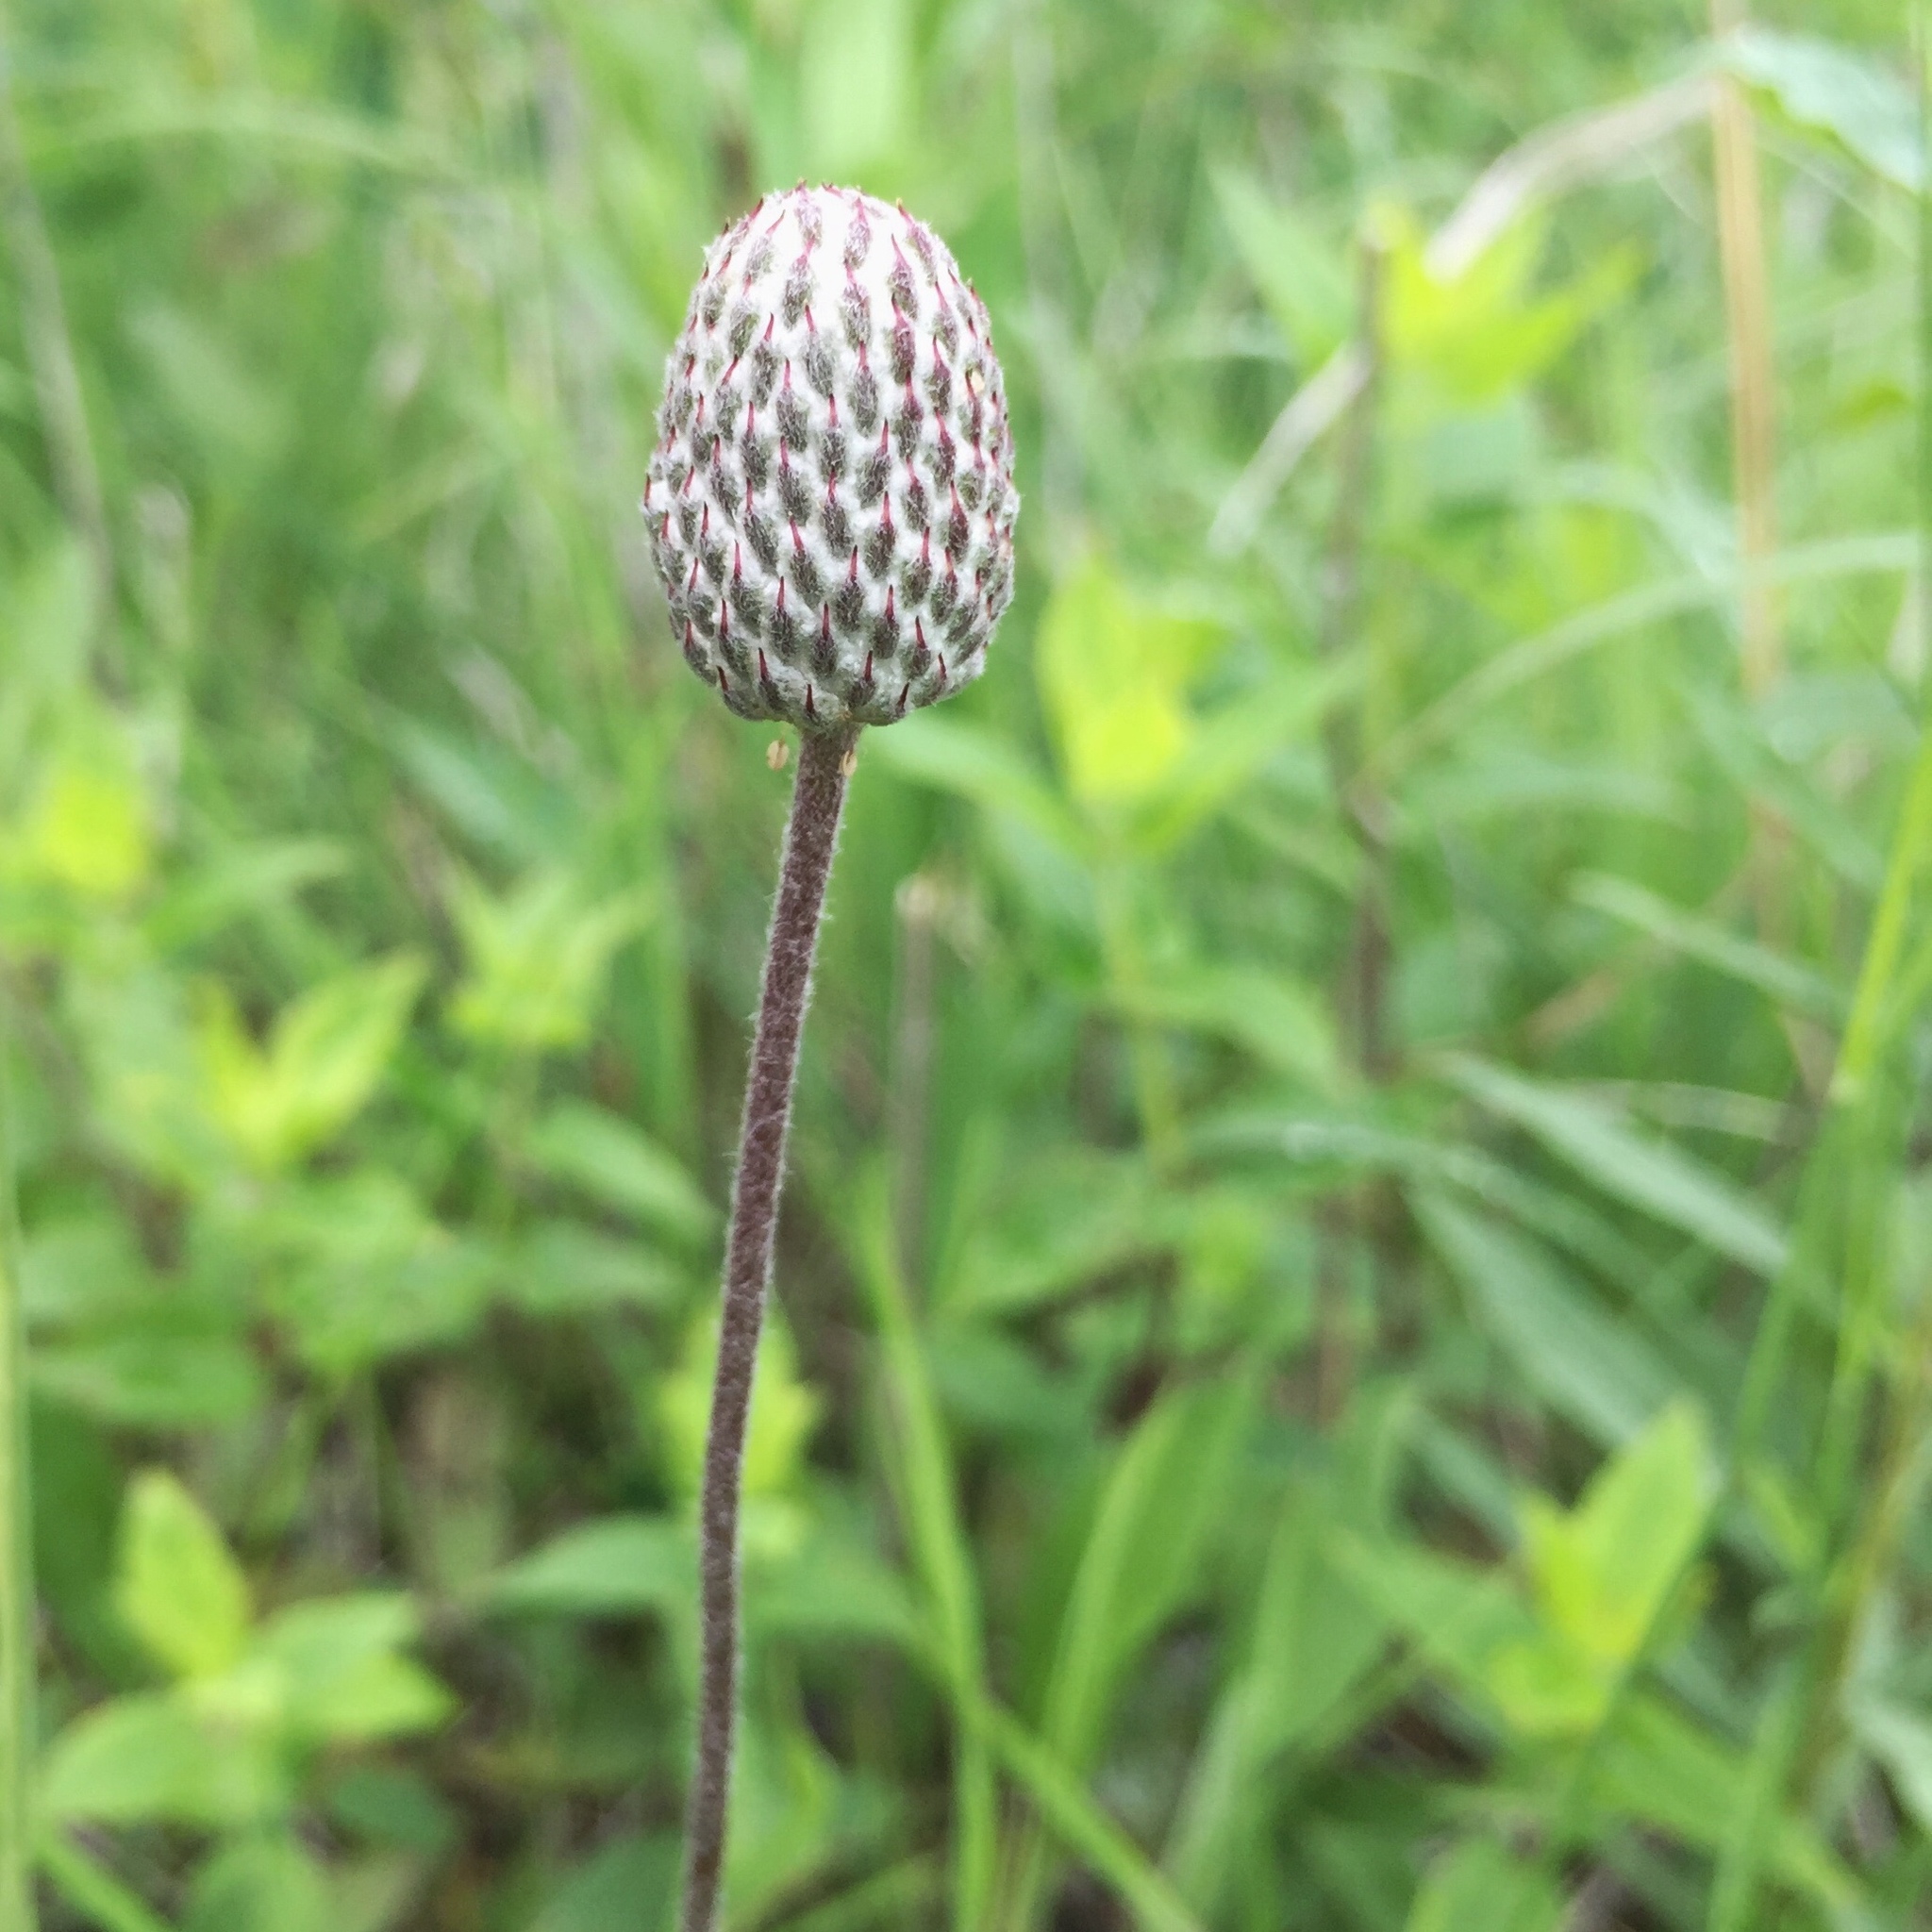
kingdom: Plantae
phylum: Tracheophyta
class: Magnoliopsida
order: Ranunculales
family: Ranunculaceae
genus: Anemone
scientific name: Anemone multifida
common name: Bird's-foot anemone
